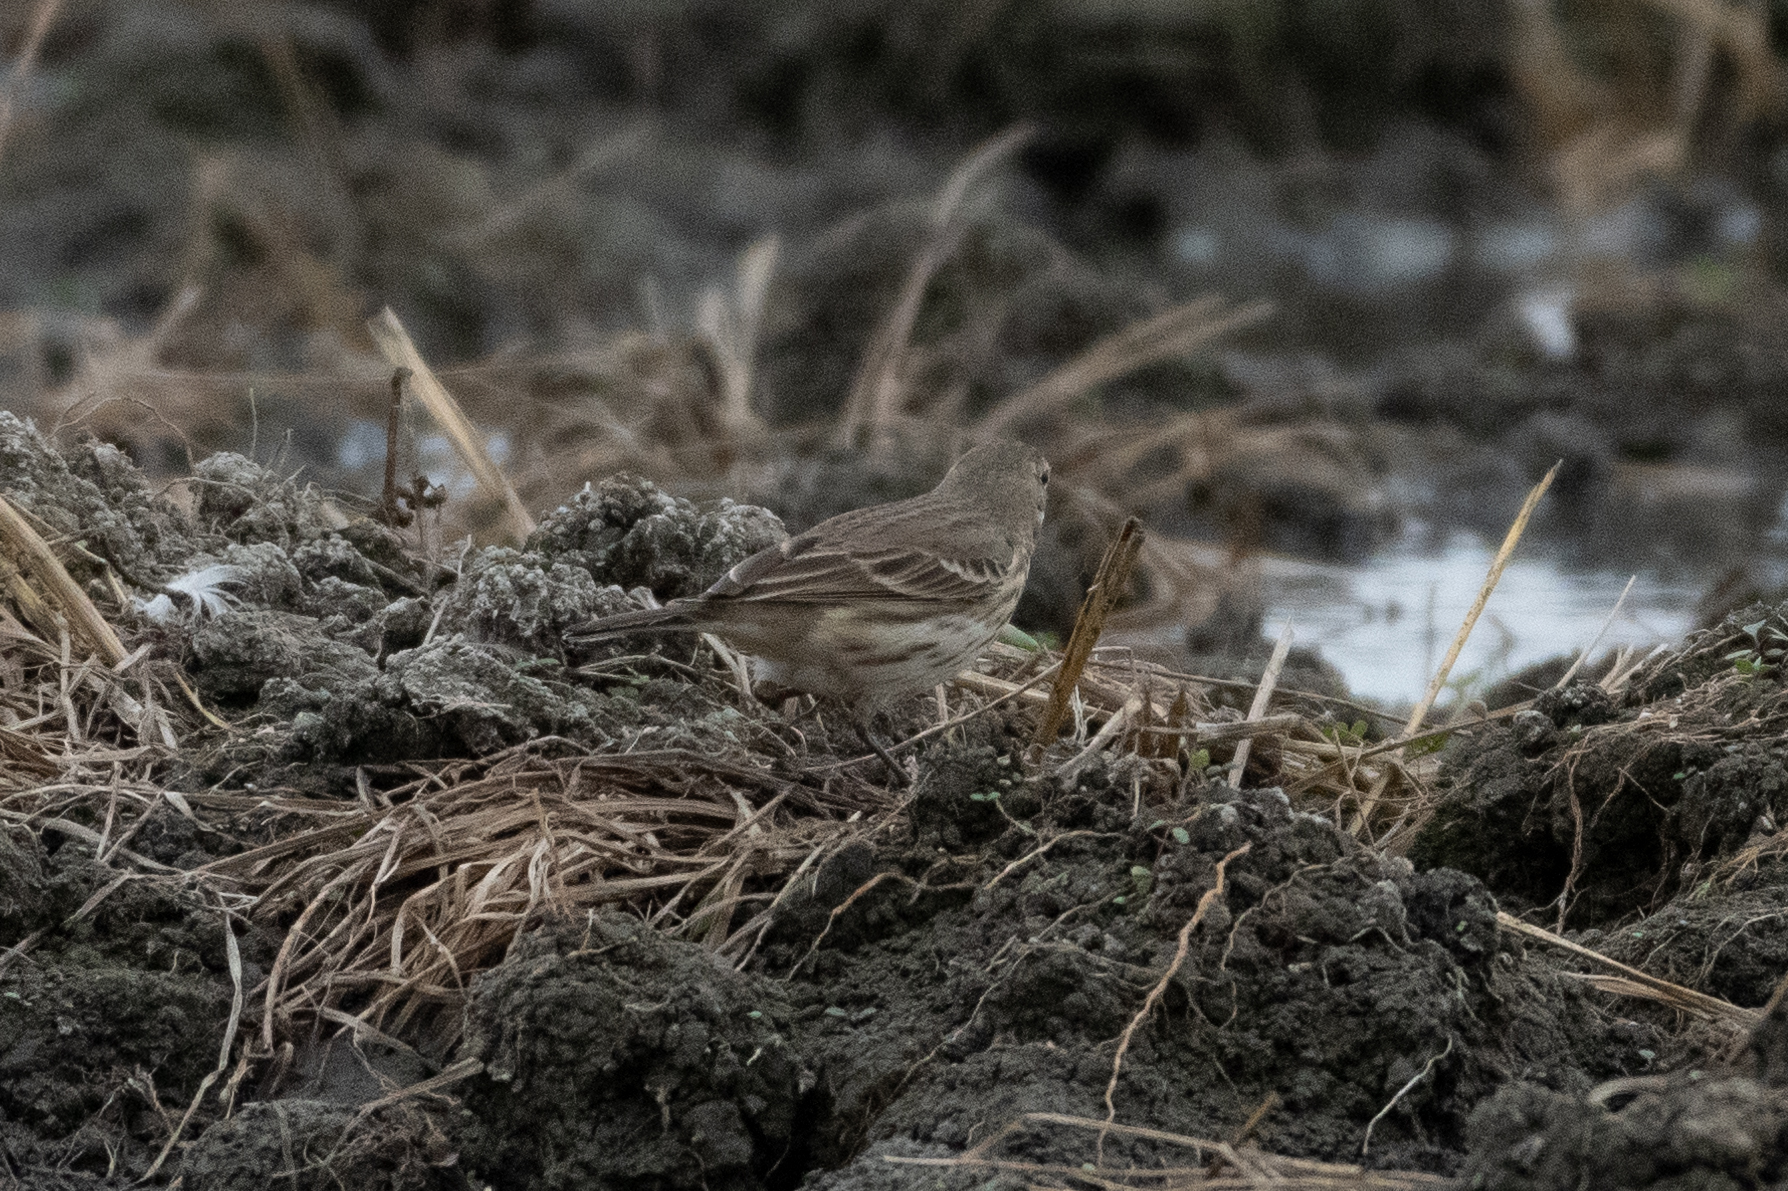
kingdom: Animalia
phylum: Chordata
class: Aves
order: Passeriformes
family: Motacillidae
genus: Anthus
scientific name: Anthus rubescens
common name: Buff-bellied pipit
